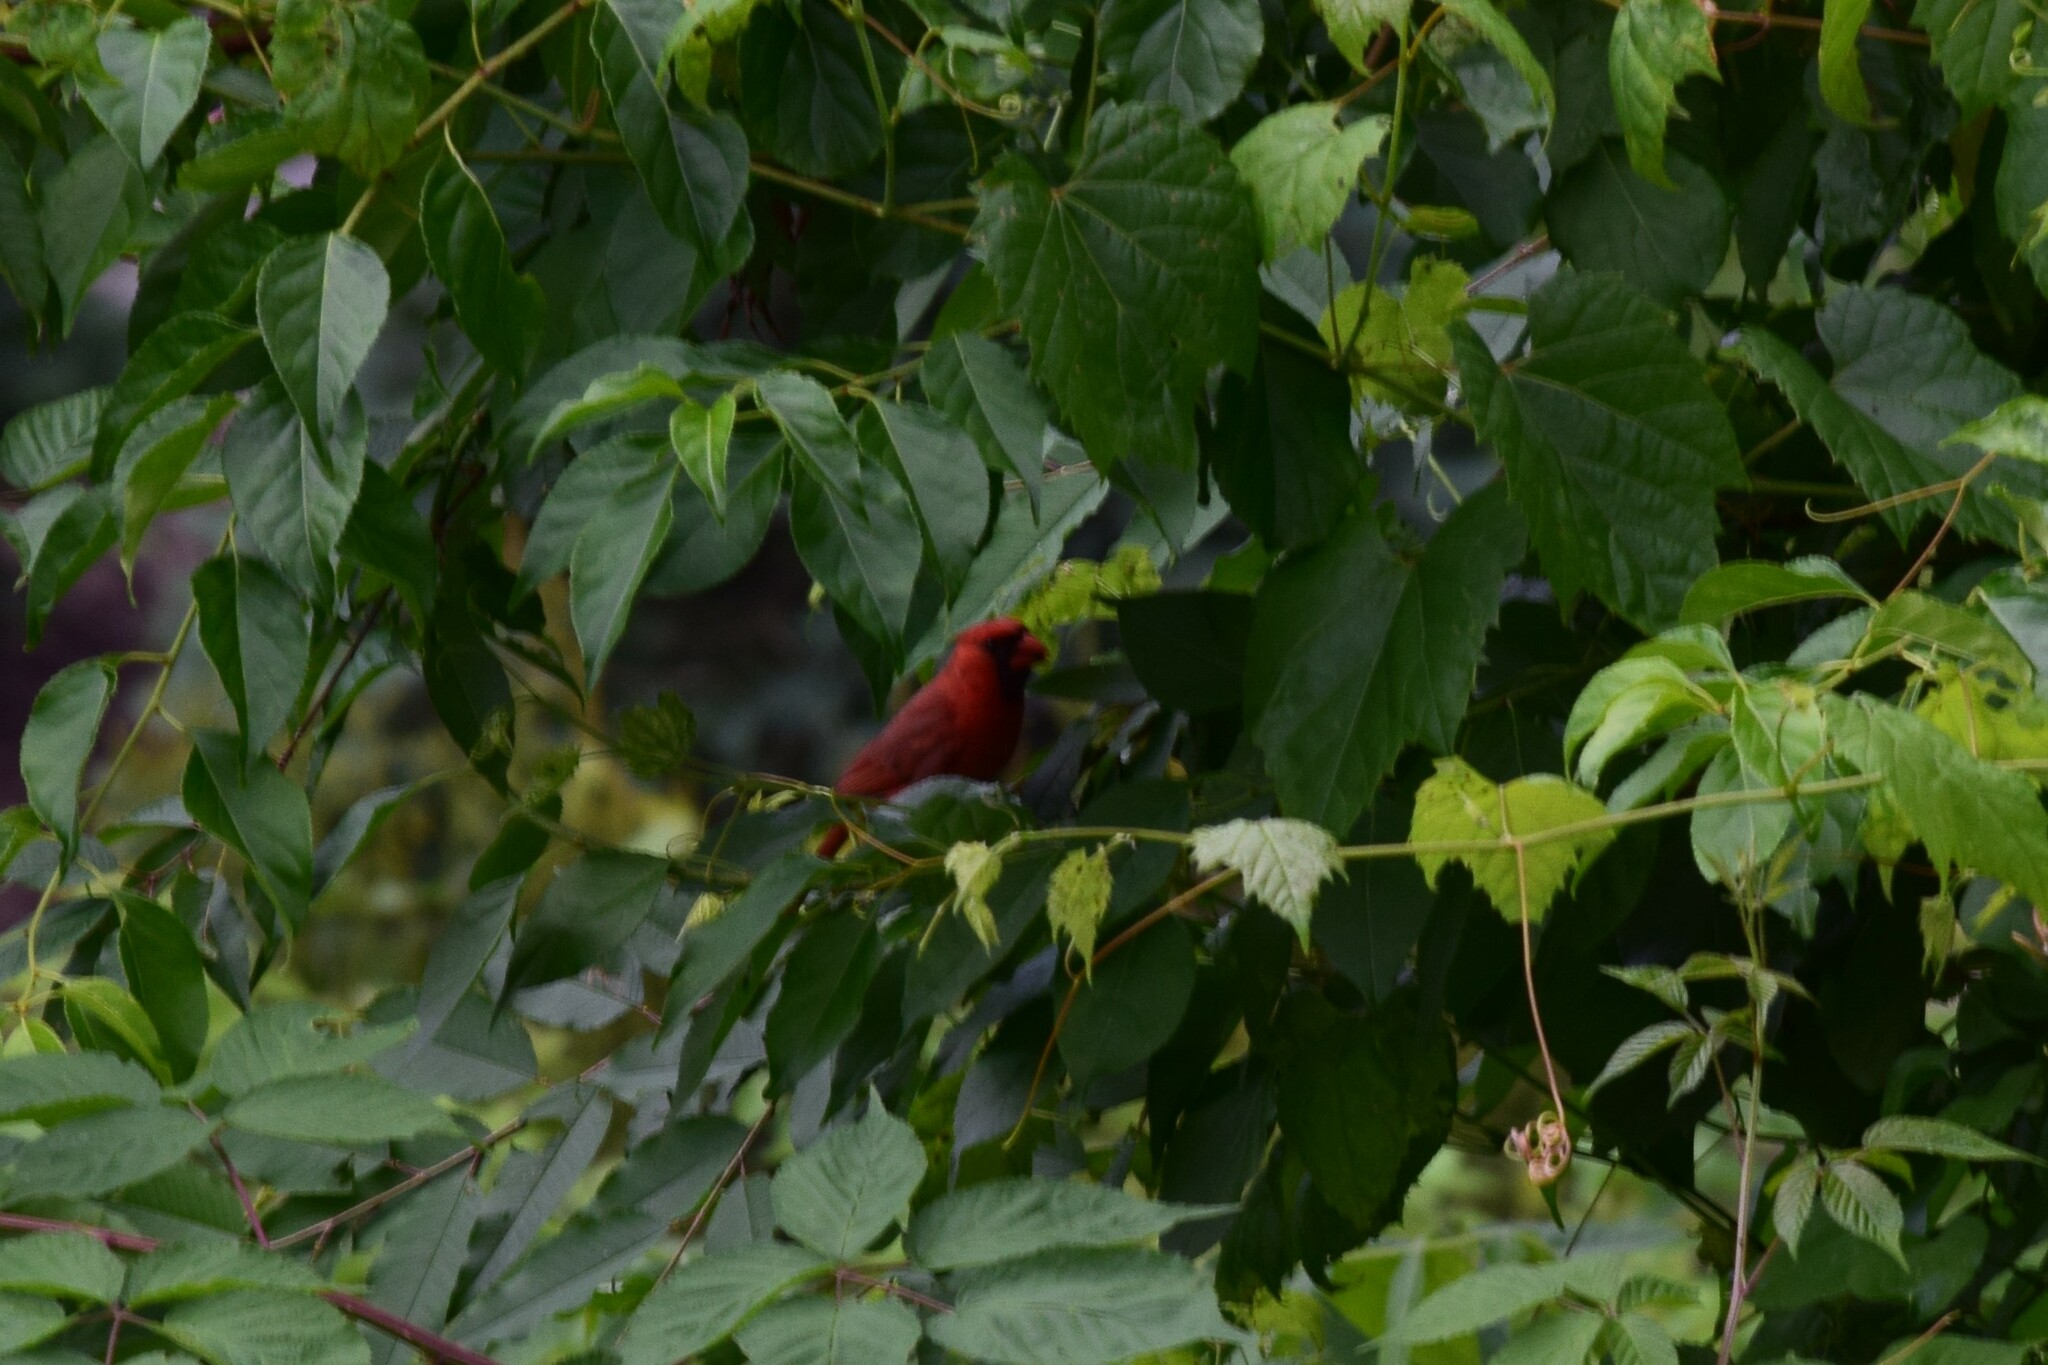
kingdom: Animalia
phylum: Chordata
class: Aves
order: Passeriformes
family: Cardinalidae
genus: Cardinalis
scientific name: Cardinalis cardinalis
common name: Northern cardinal
